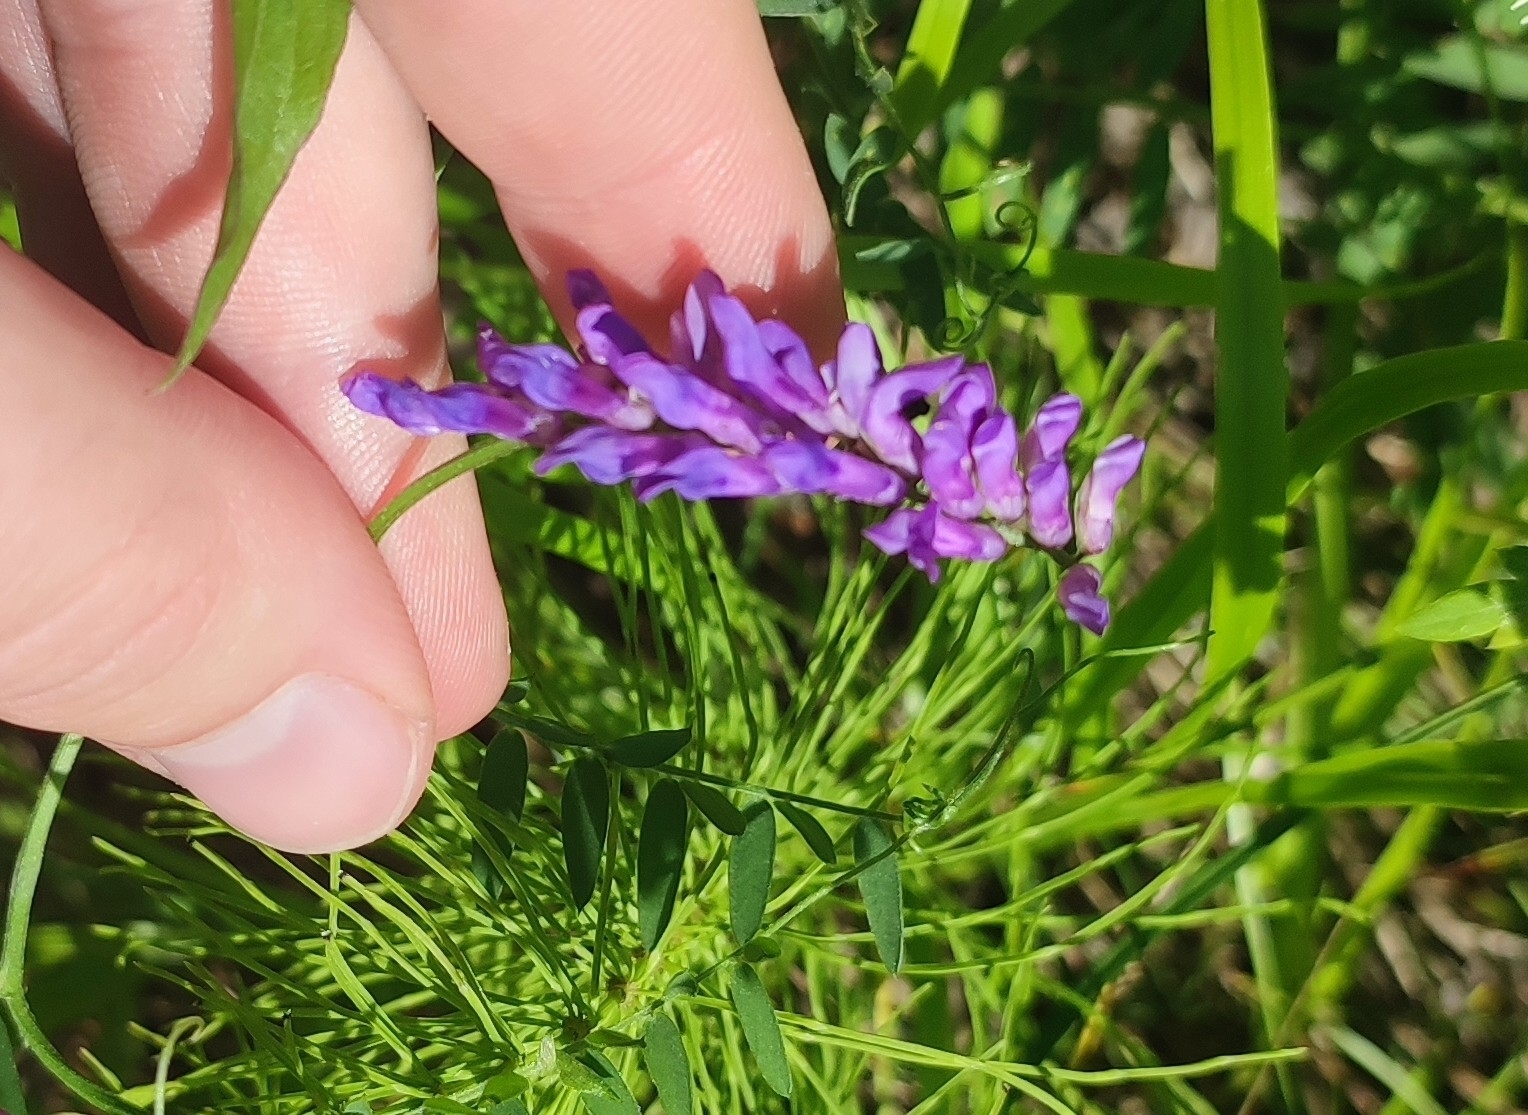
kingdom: Plantae
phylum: Tracheophyta
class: Magnoliopsida
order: Fabales
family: Fabaceae
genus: Vicia
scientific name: Vicia cracca
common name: Bird vetch
